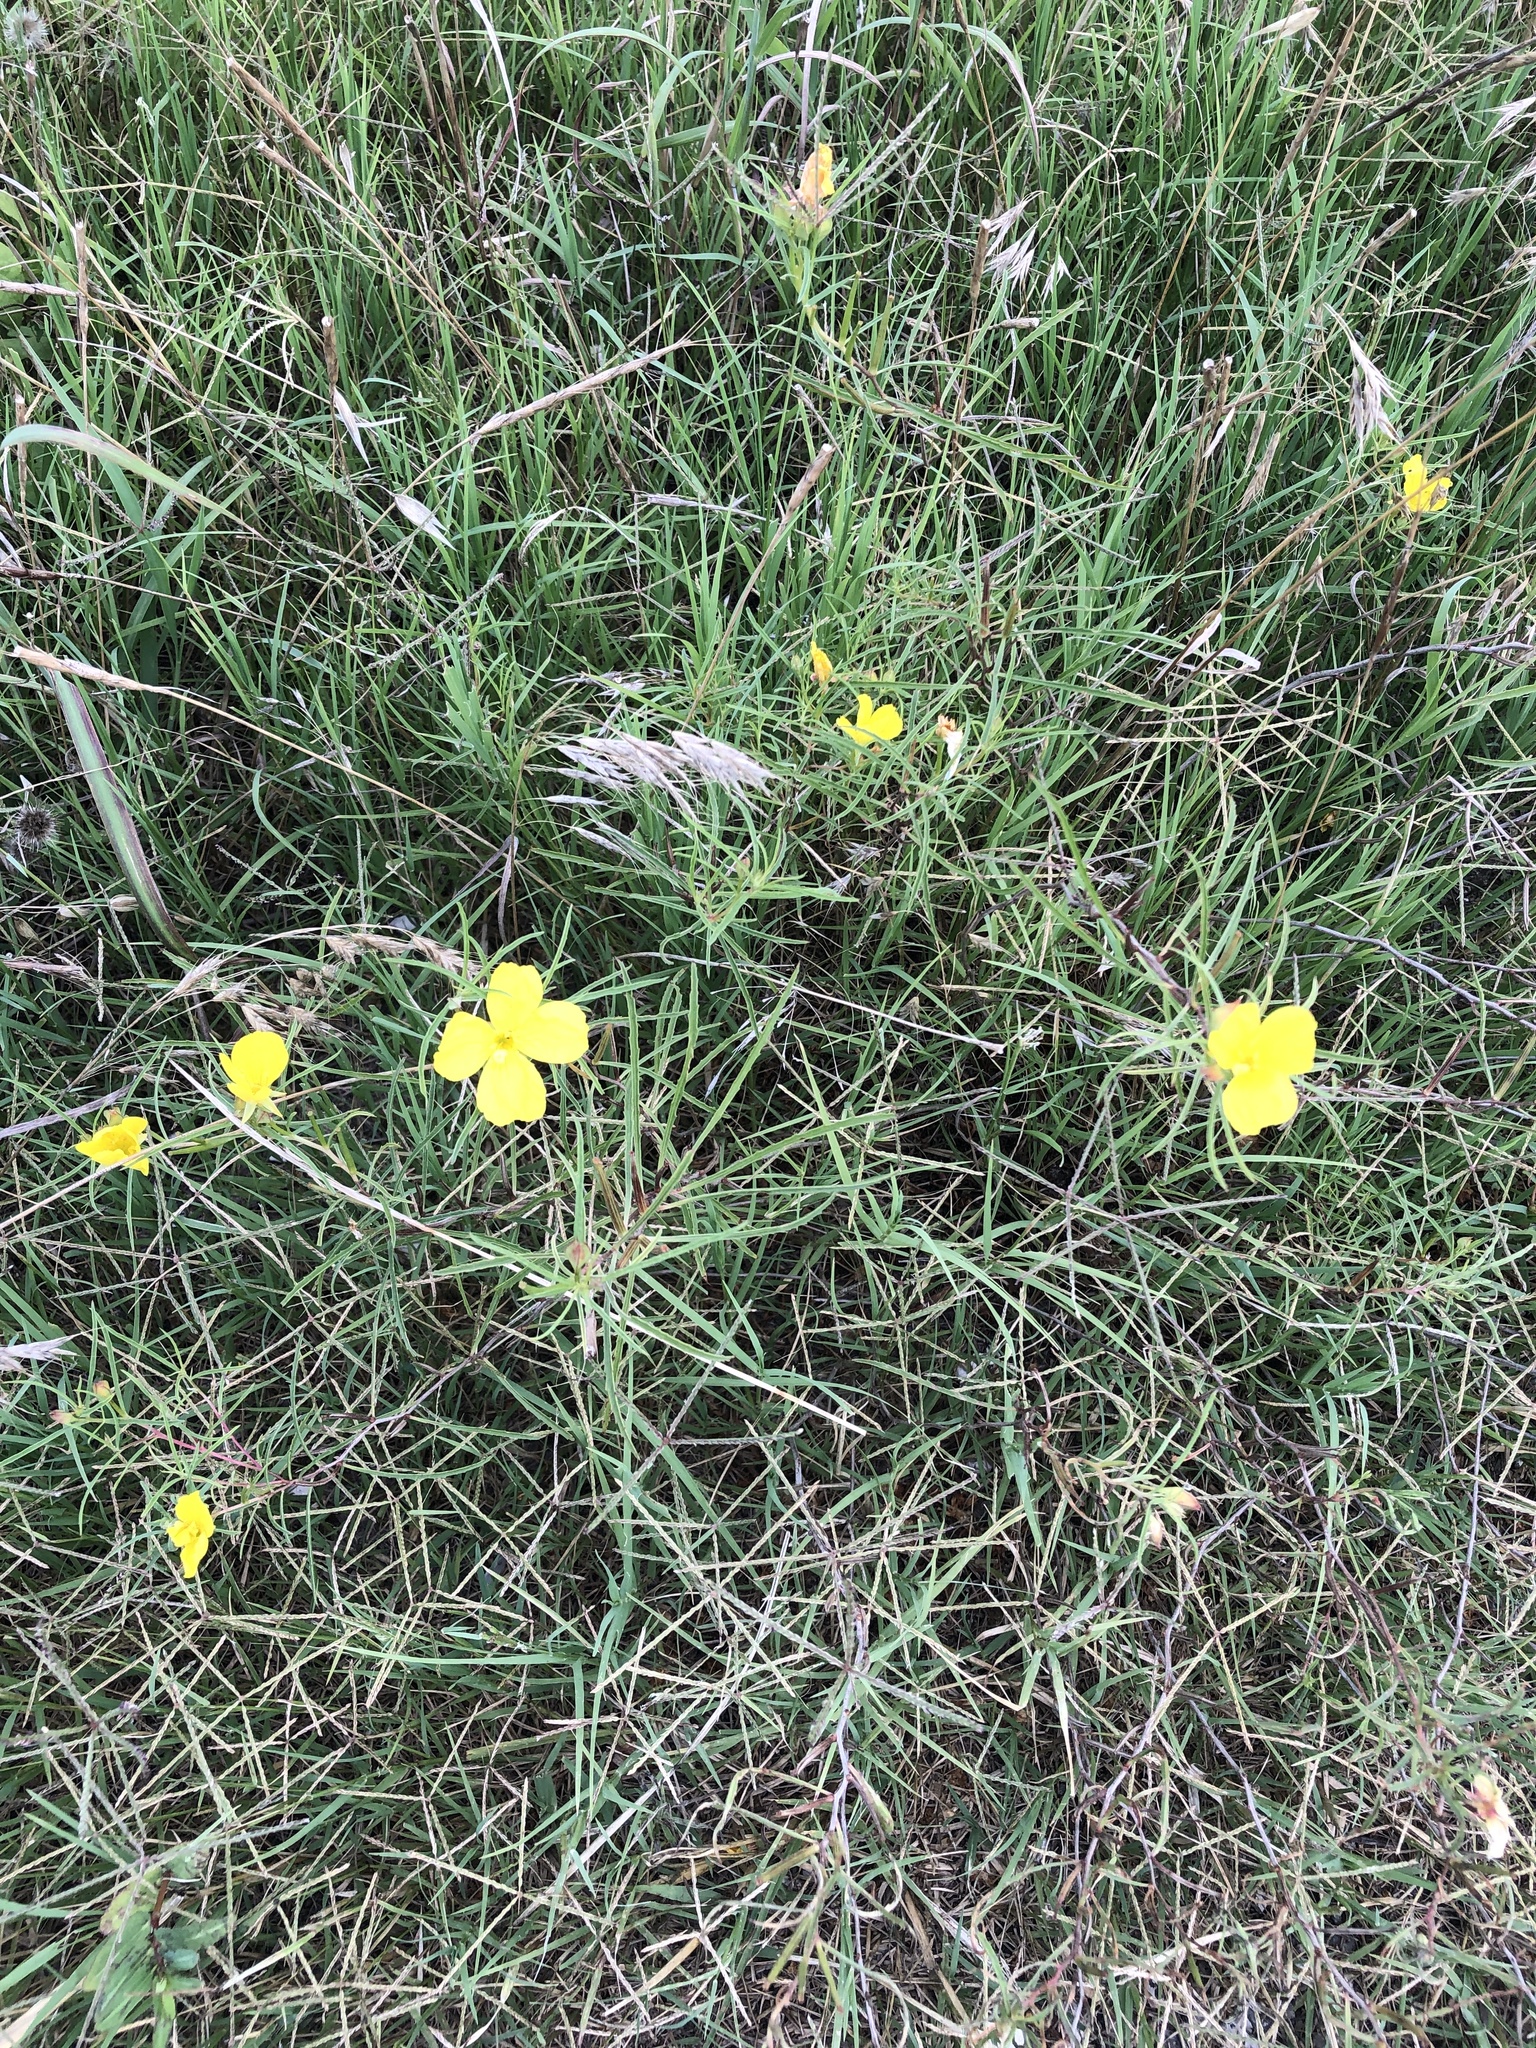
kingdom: Plantae
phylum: Tracheophyta
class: Magnoliopsida
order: Myrtales
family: Onagraceae
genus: Oenothera
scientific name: Oenothera
